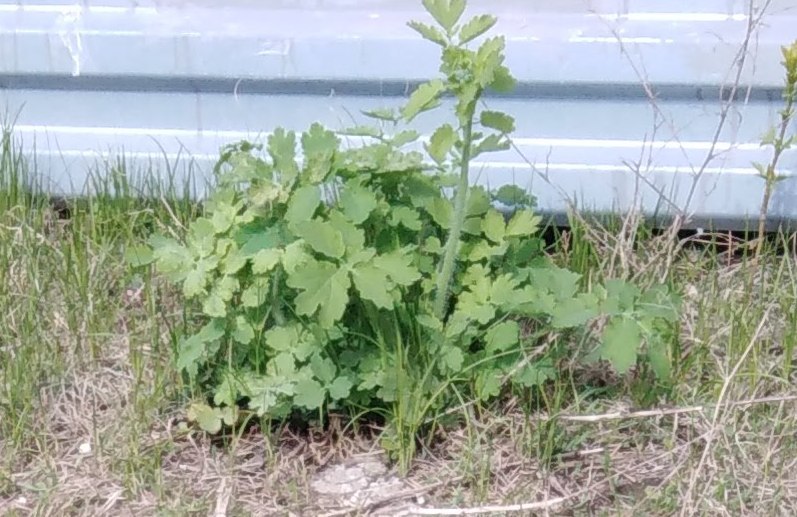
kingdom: Plantae
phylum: Tracheophyta
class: Magnoliopsida
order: Ranunculales
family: Papaveraceae
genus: Chelidonium
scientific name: Chelidonium majus
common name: Greater celandine
